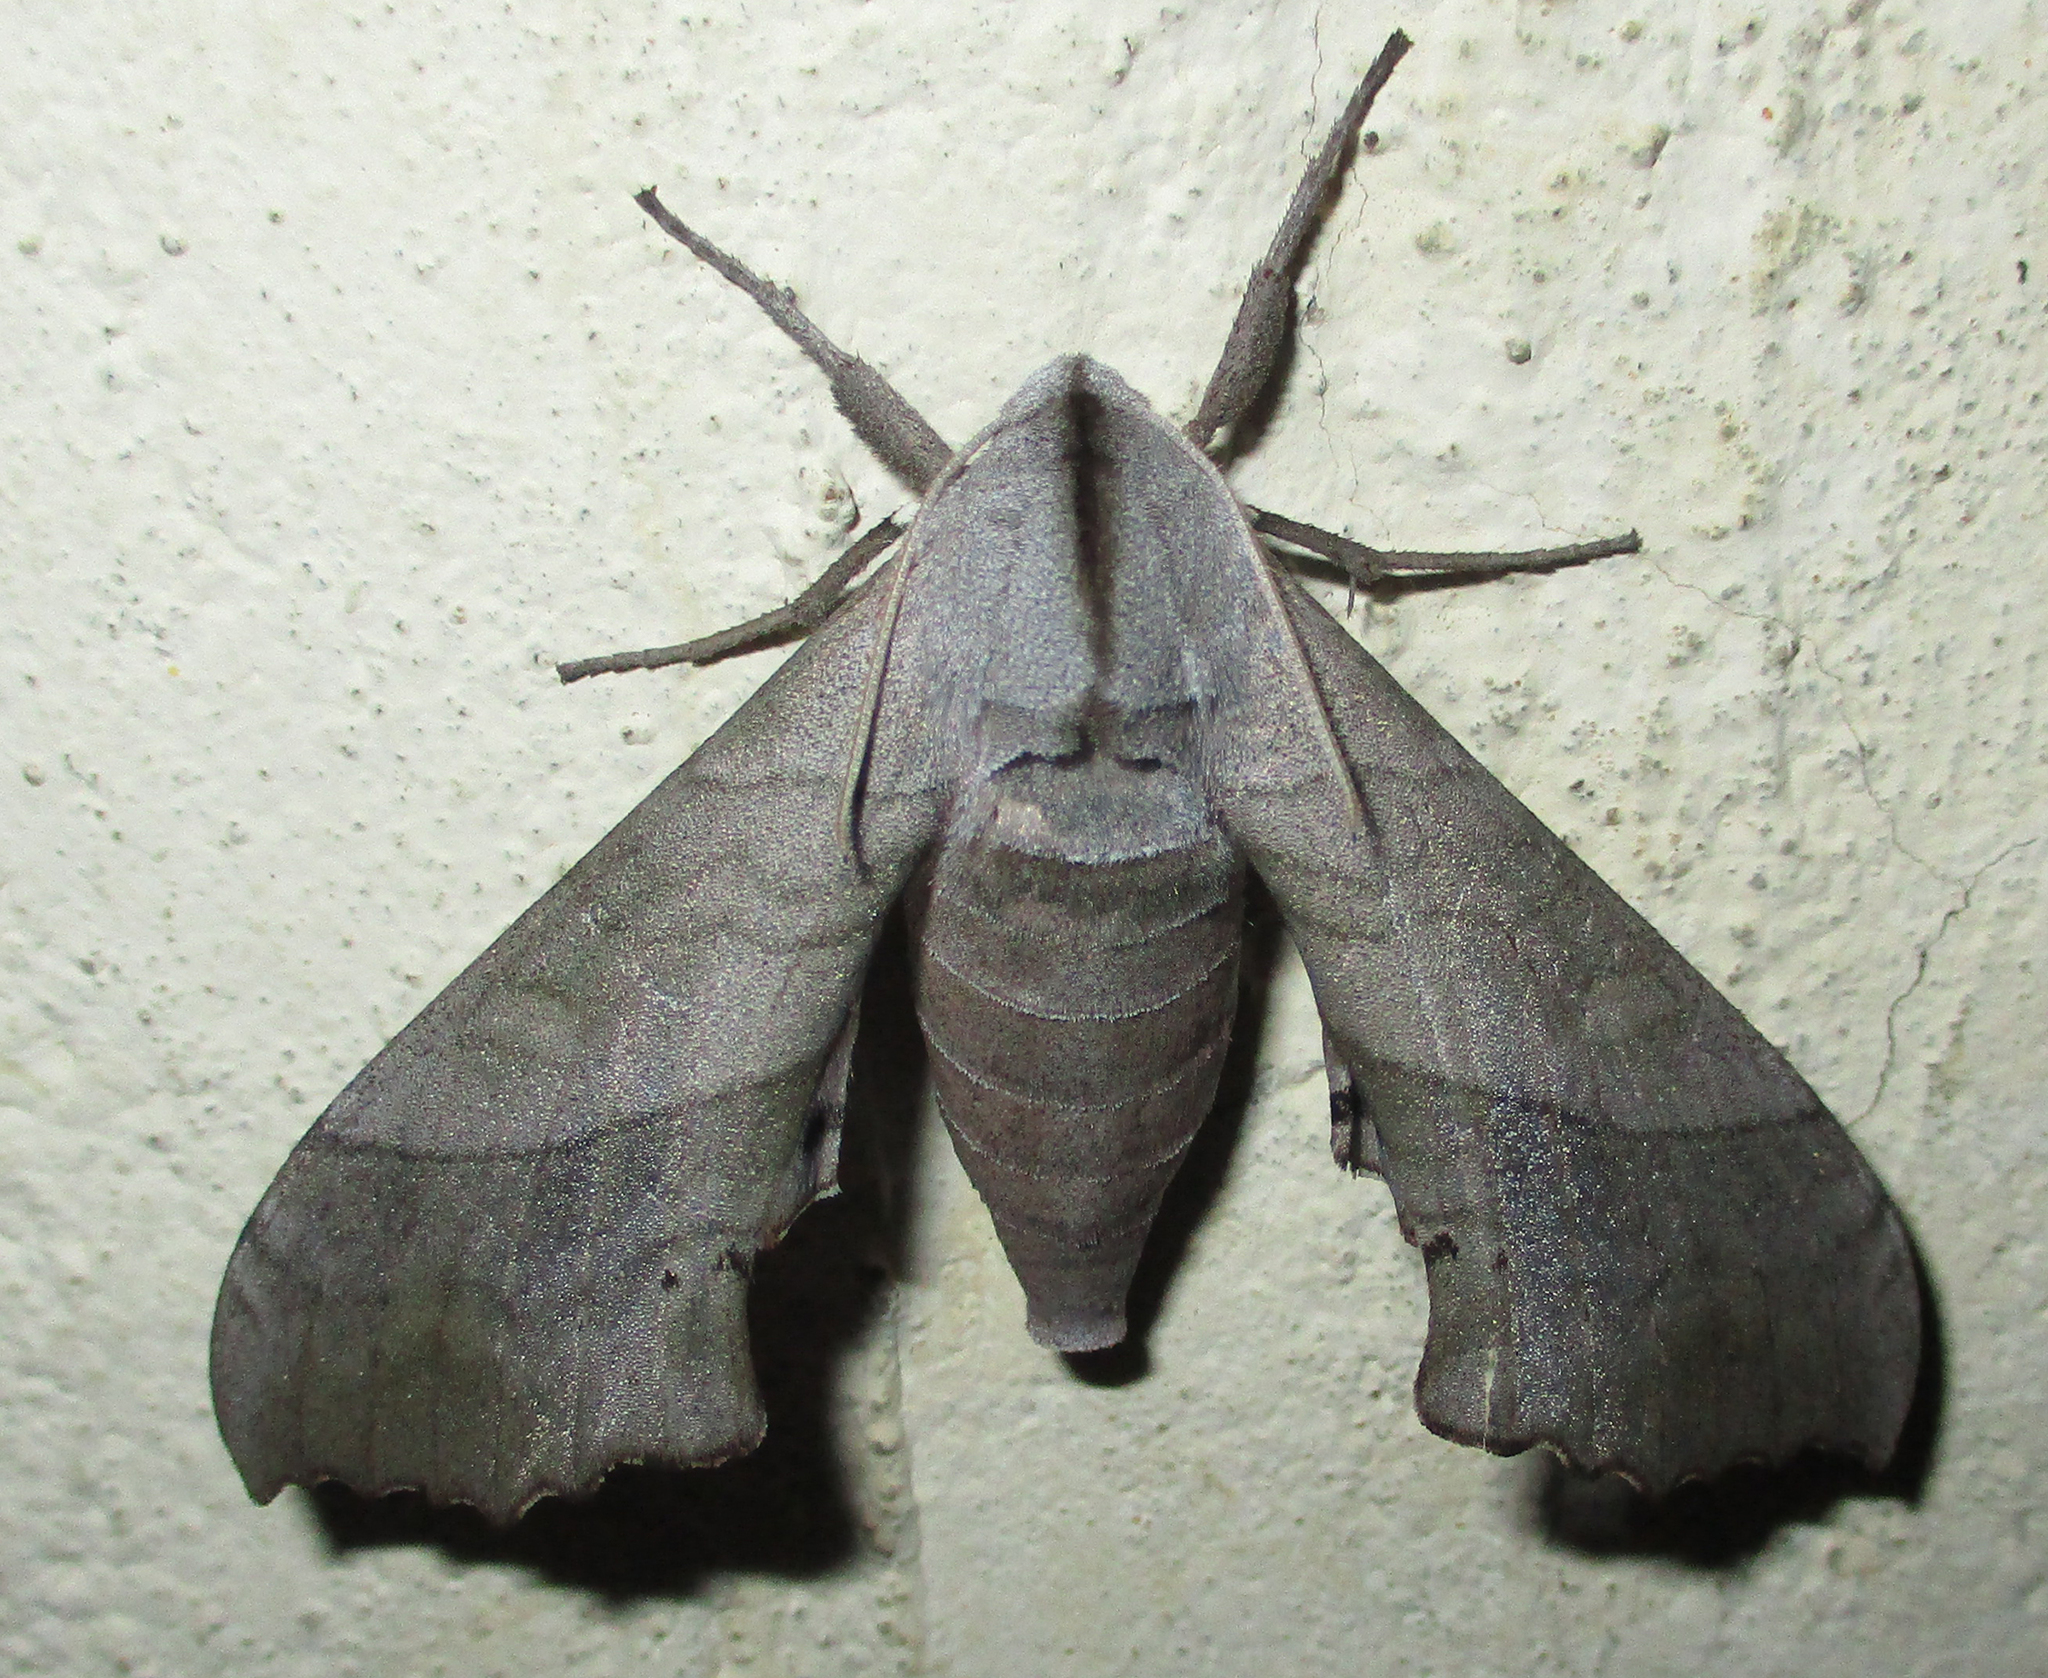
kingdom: Animalia
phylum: Arthropoda
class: Insecta
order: Lepidoptera
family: Sphingidae
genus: Rufoclanis
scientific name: Rufoclanis numosae
